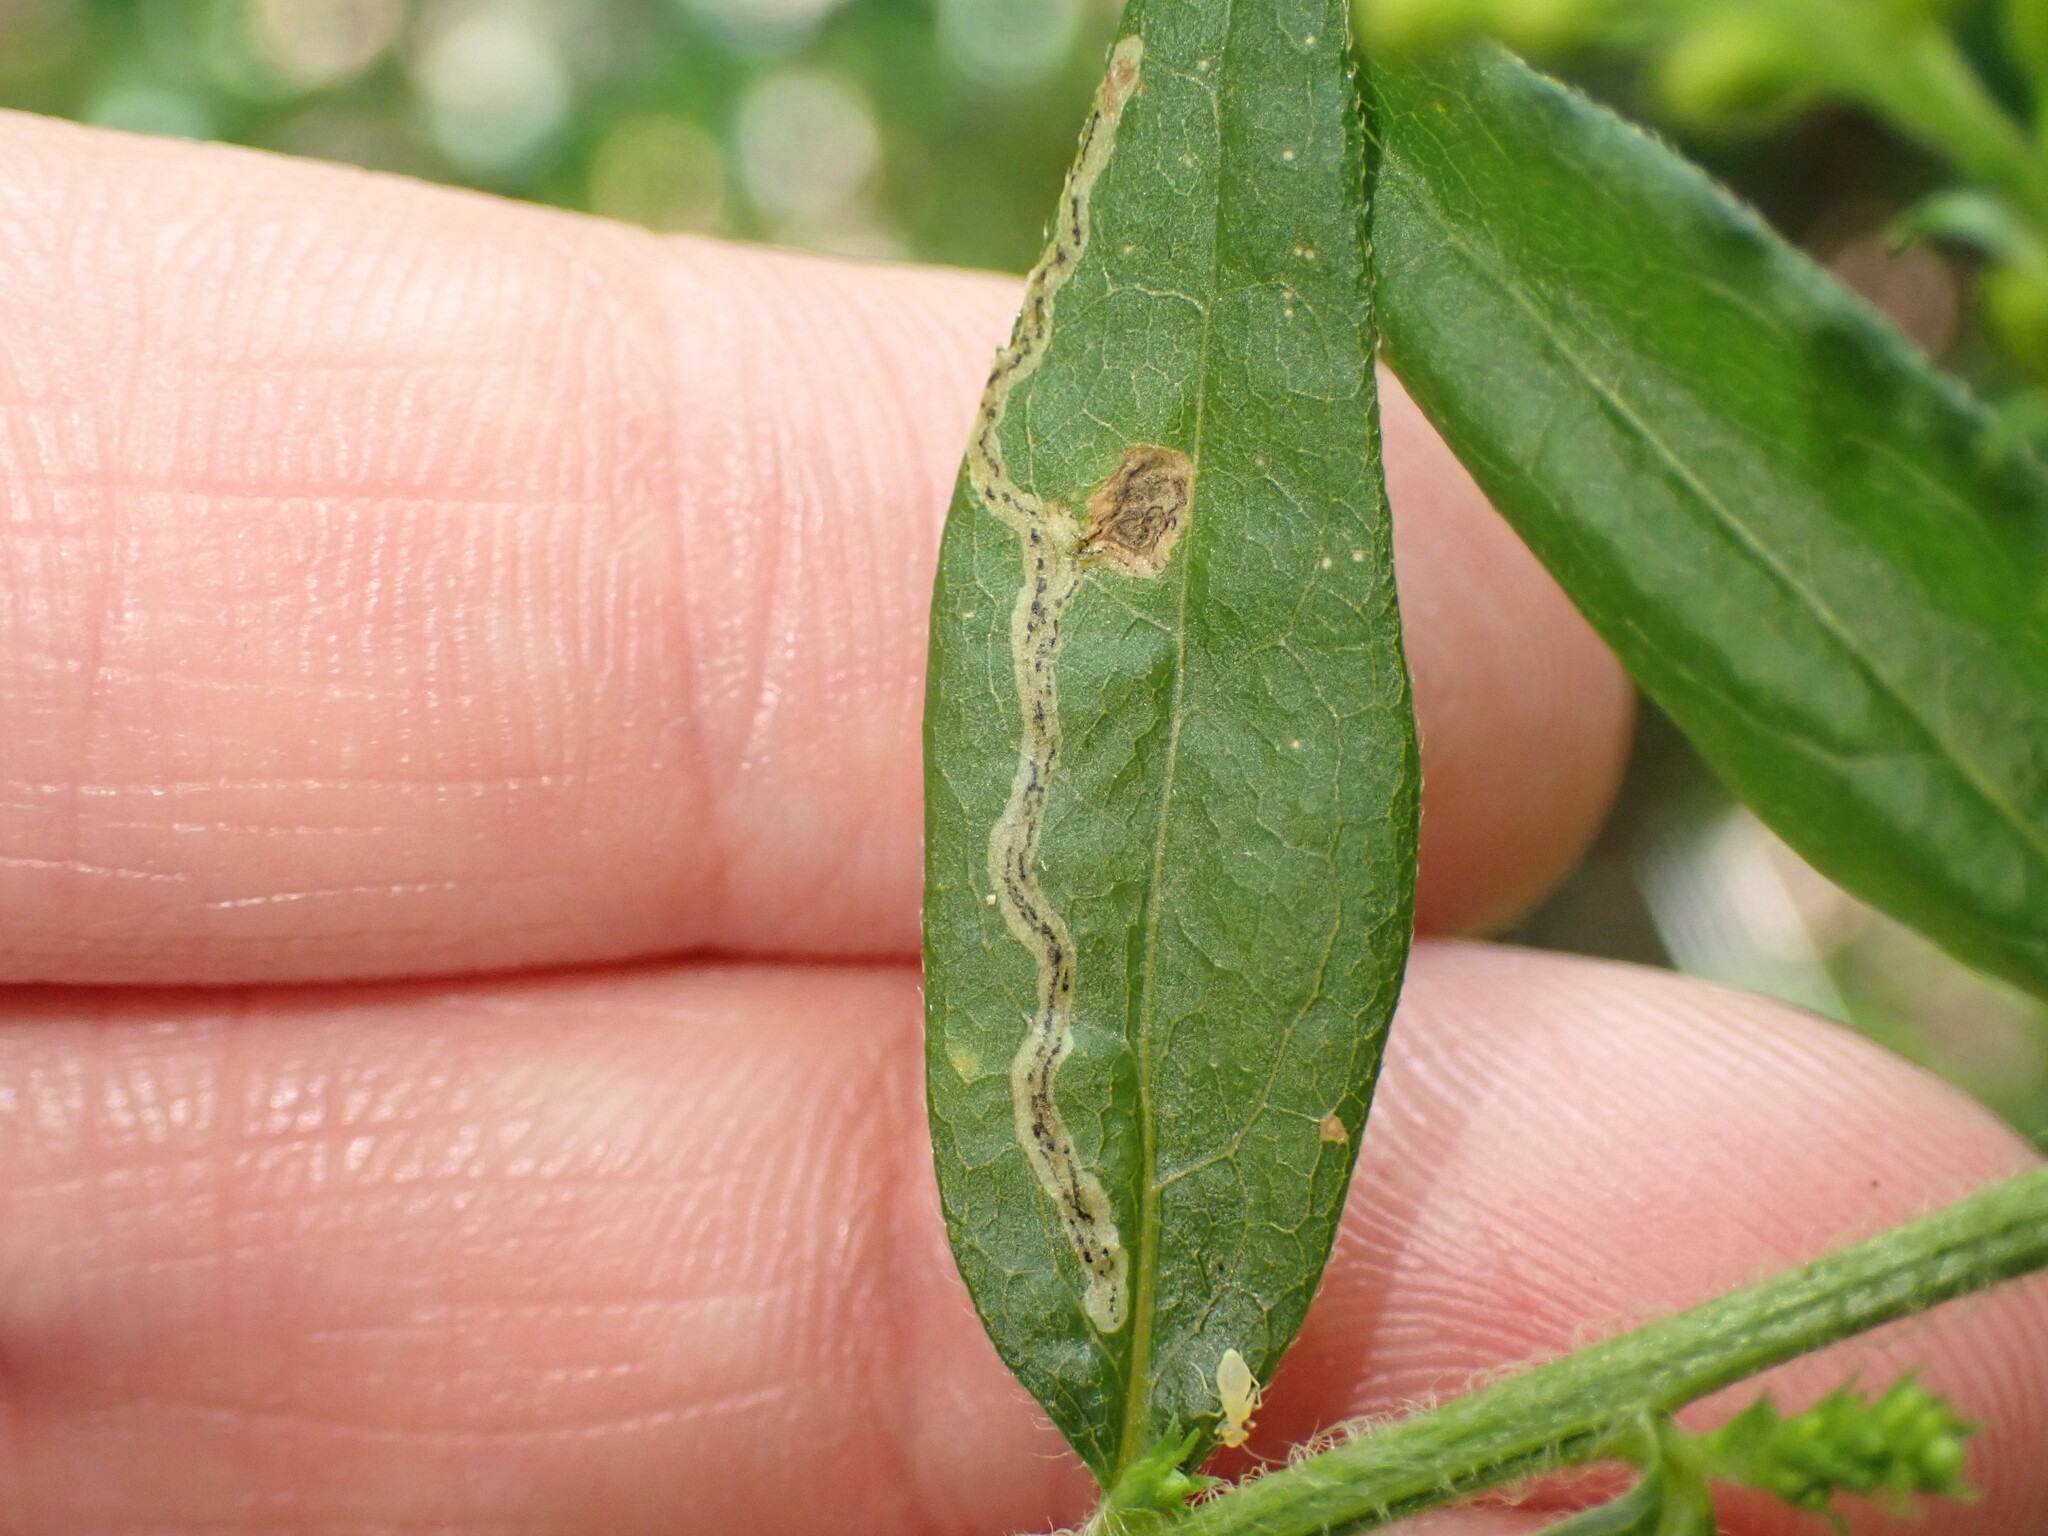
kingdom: Animalia
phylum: Arthropoda
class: Insecta
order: Diptera
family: Agromyzidae
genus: Liriomyza
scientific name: Liriomyza eupatorii
